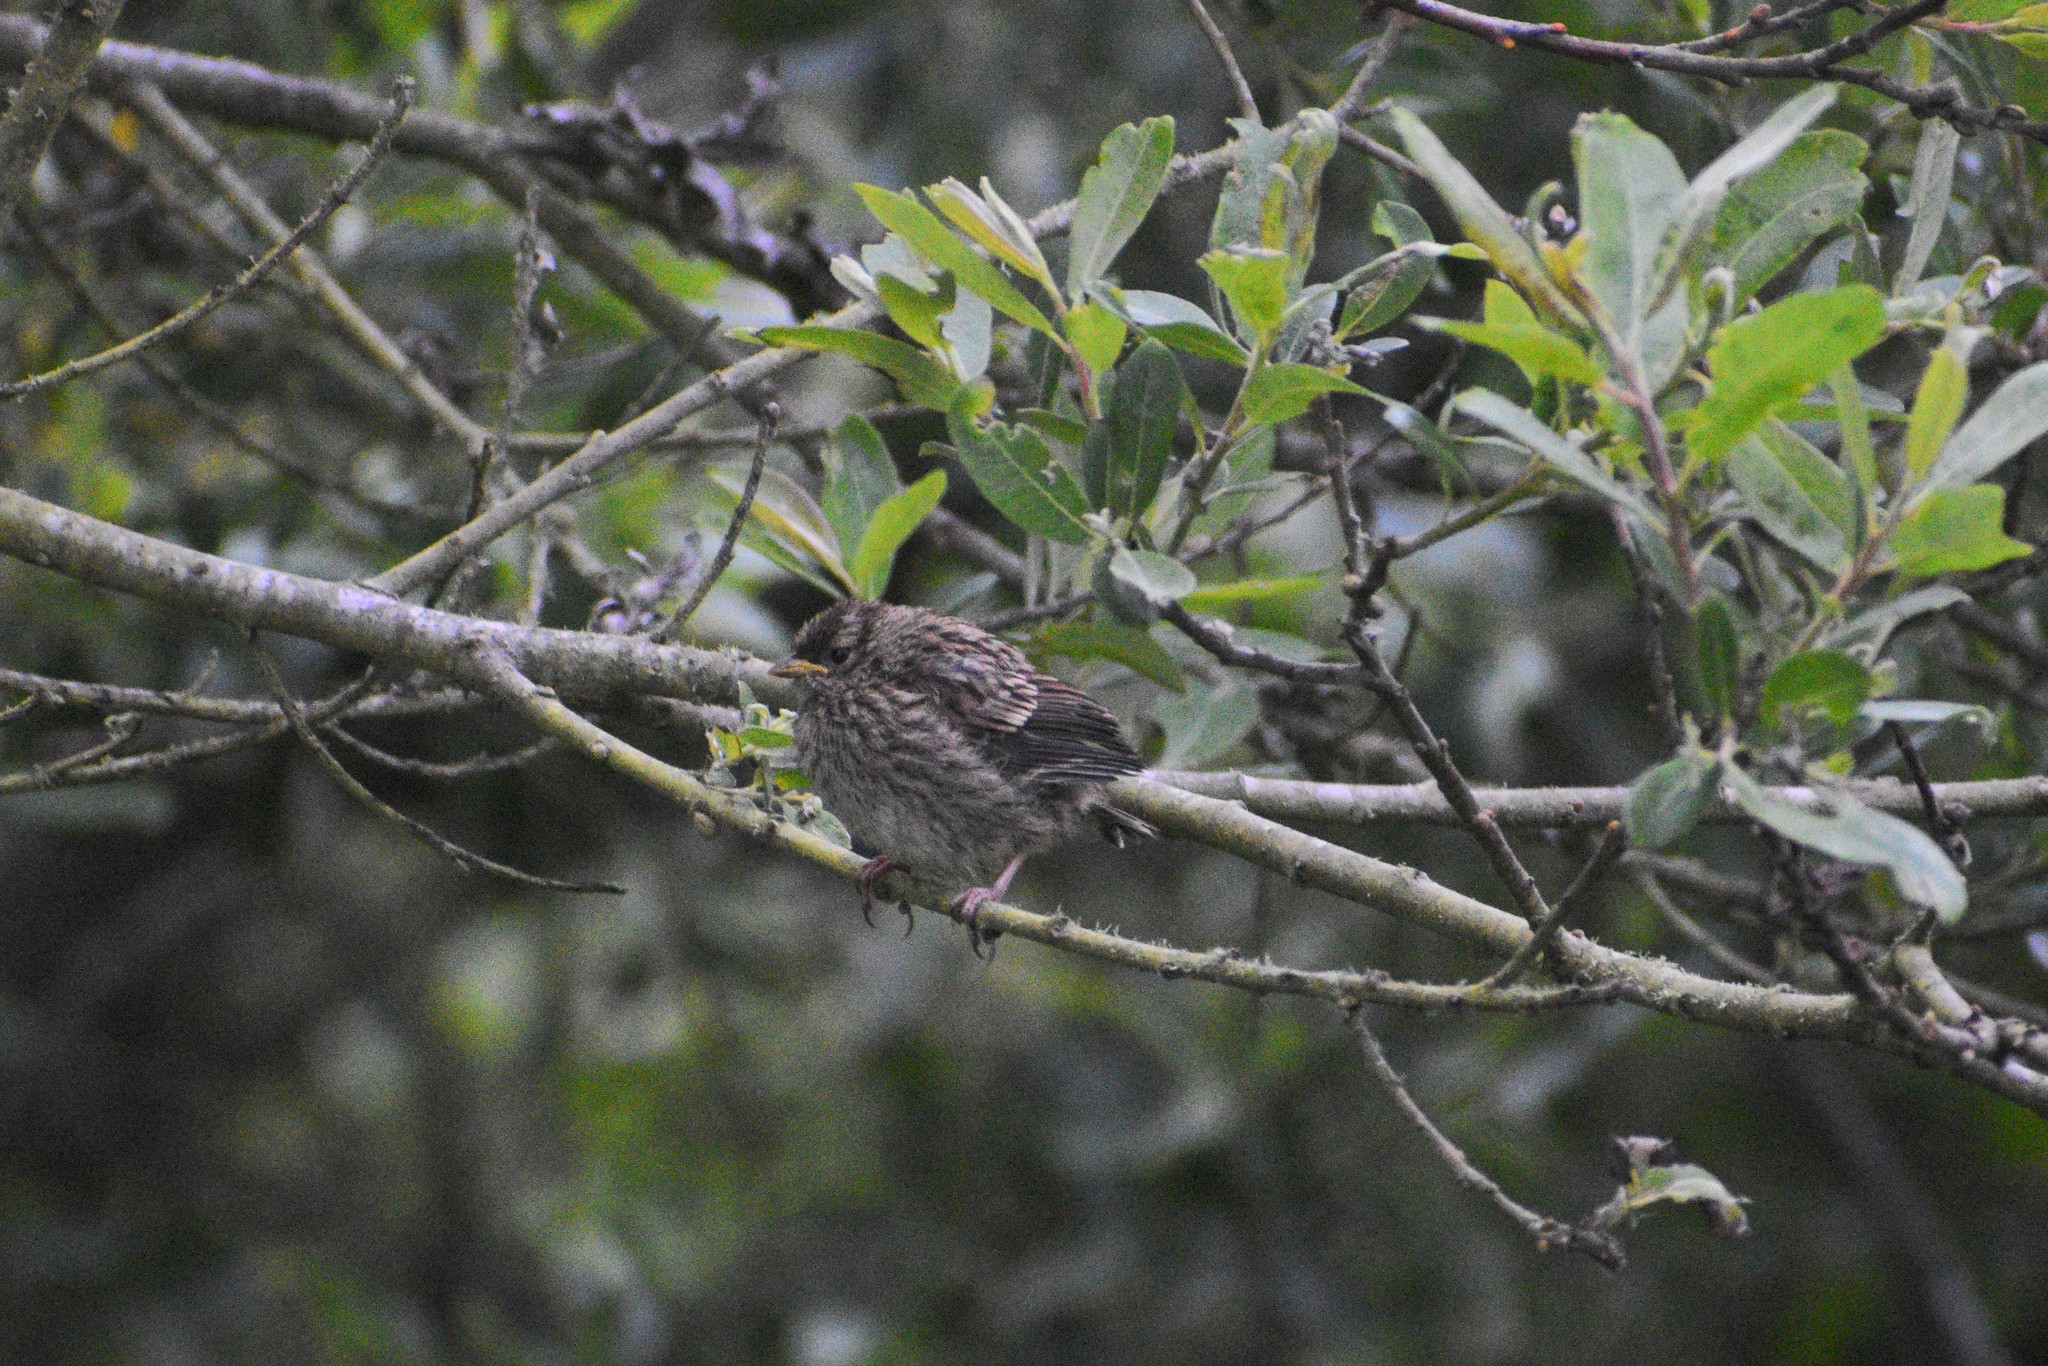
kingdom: Animalia
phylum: Chordata
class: Aves
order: Passeriformes
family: Passerellidae
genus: Zonotrichia
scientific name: Zonotrichia leucophrys
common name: White-crowned sparrow
